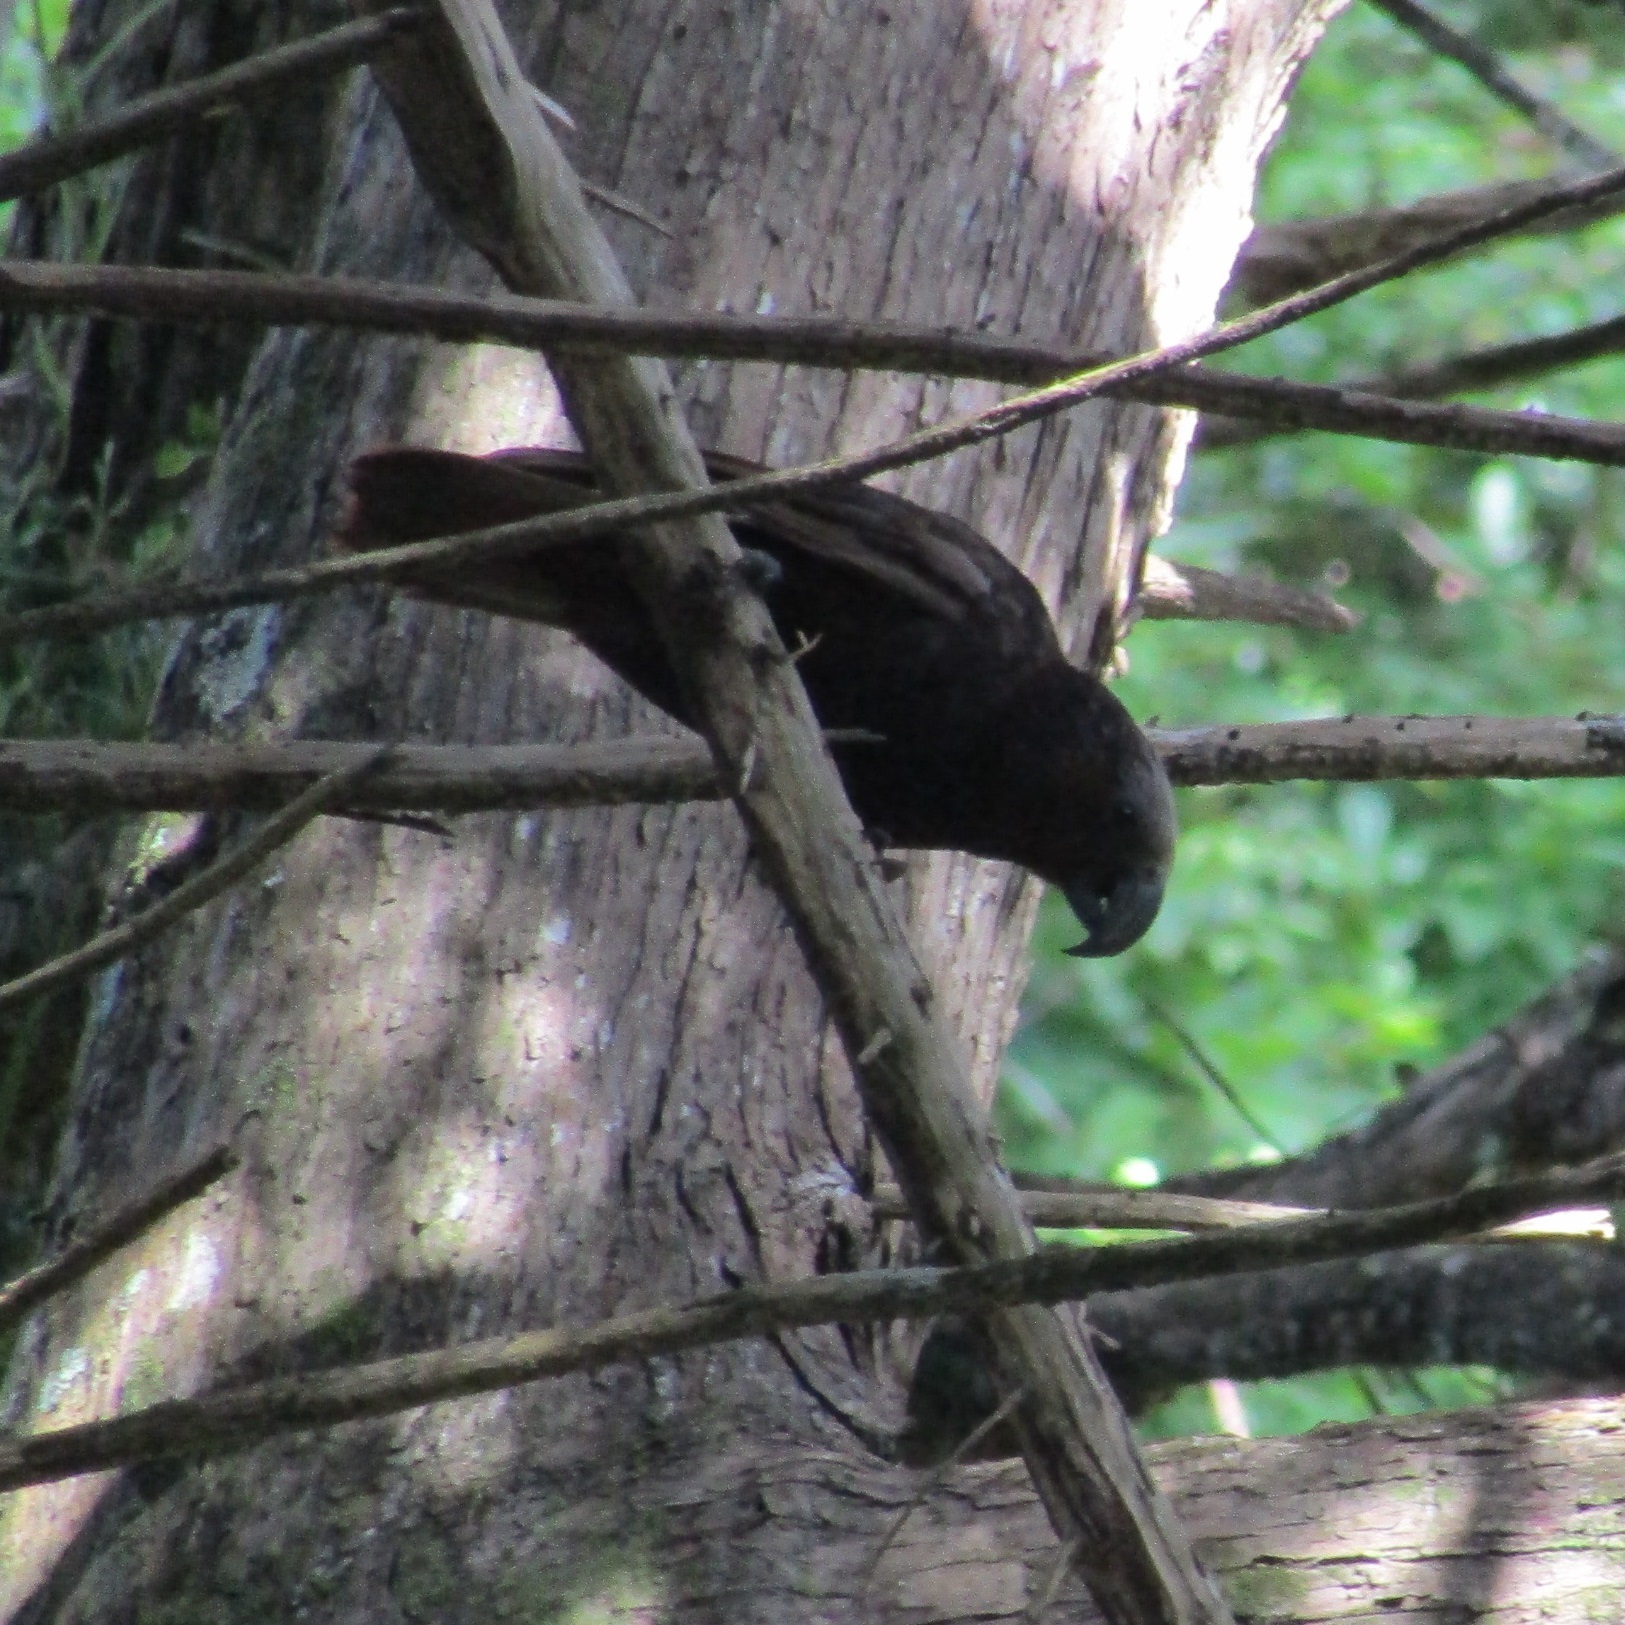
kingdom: Animalia
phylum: Chordata
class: Aves
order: Psittaciformes
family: Psittacidae
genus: Nestor
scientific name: Nestor meridionalis
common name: New zealand kaka
